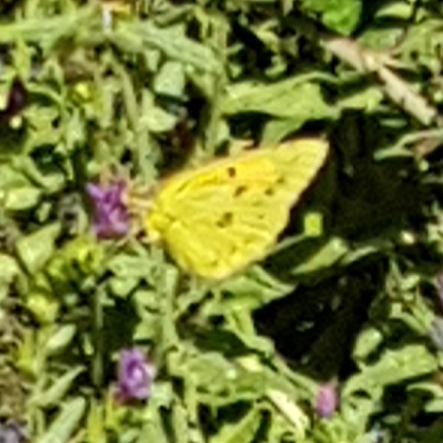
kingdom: Animalia
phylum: Arthropoda
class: Insecta
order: Lepidoptera
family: Pieridae
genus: Colias
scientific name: Colias croceus
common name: Clouded yellow
